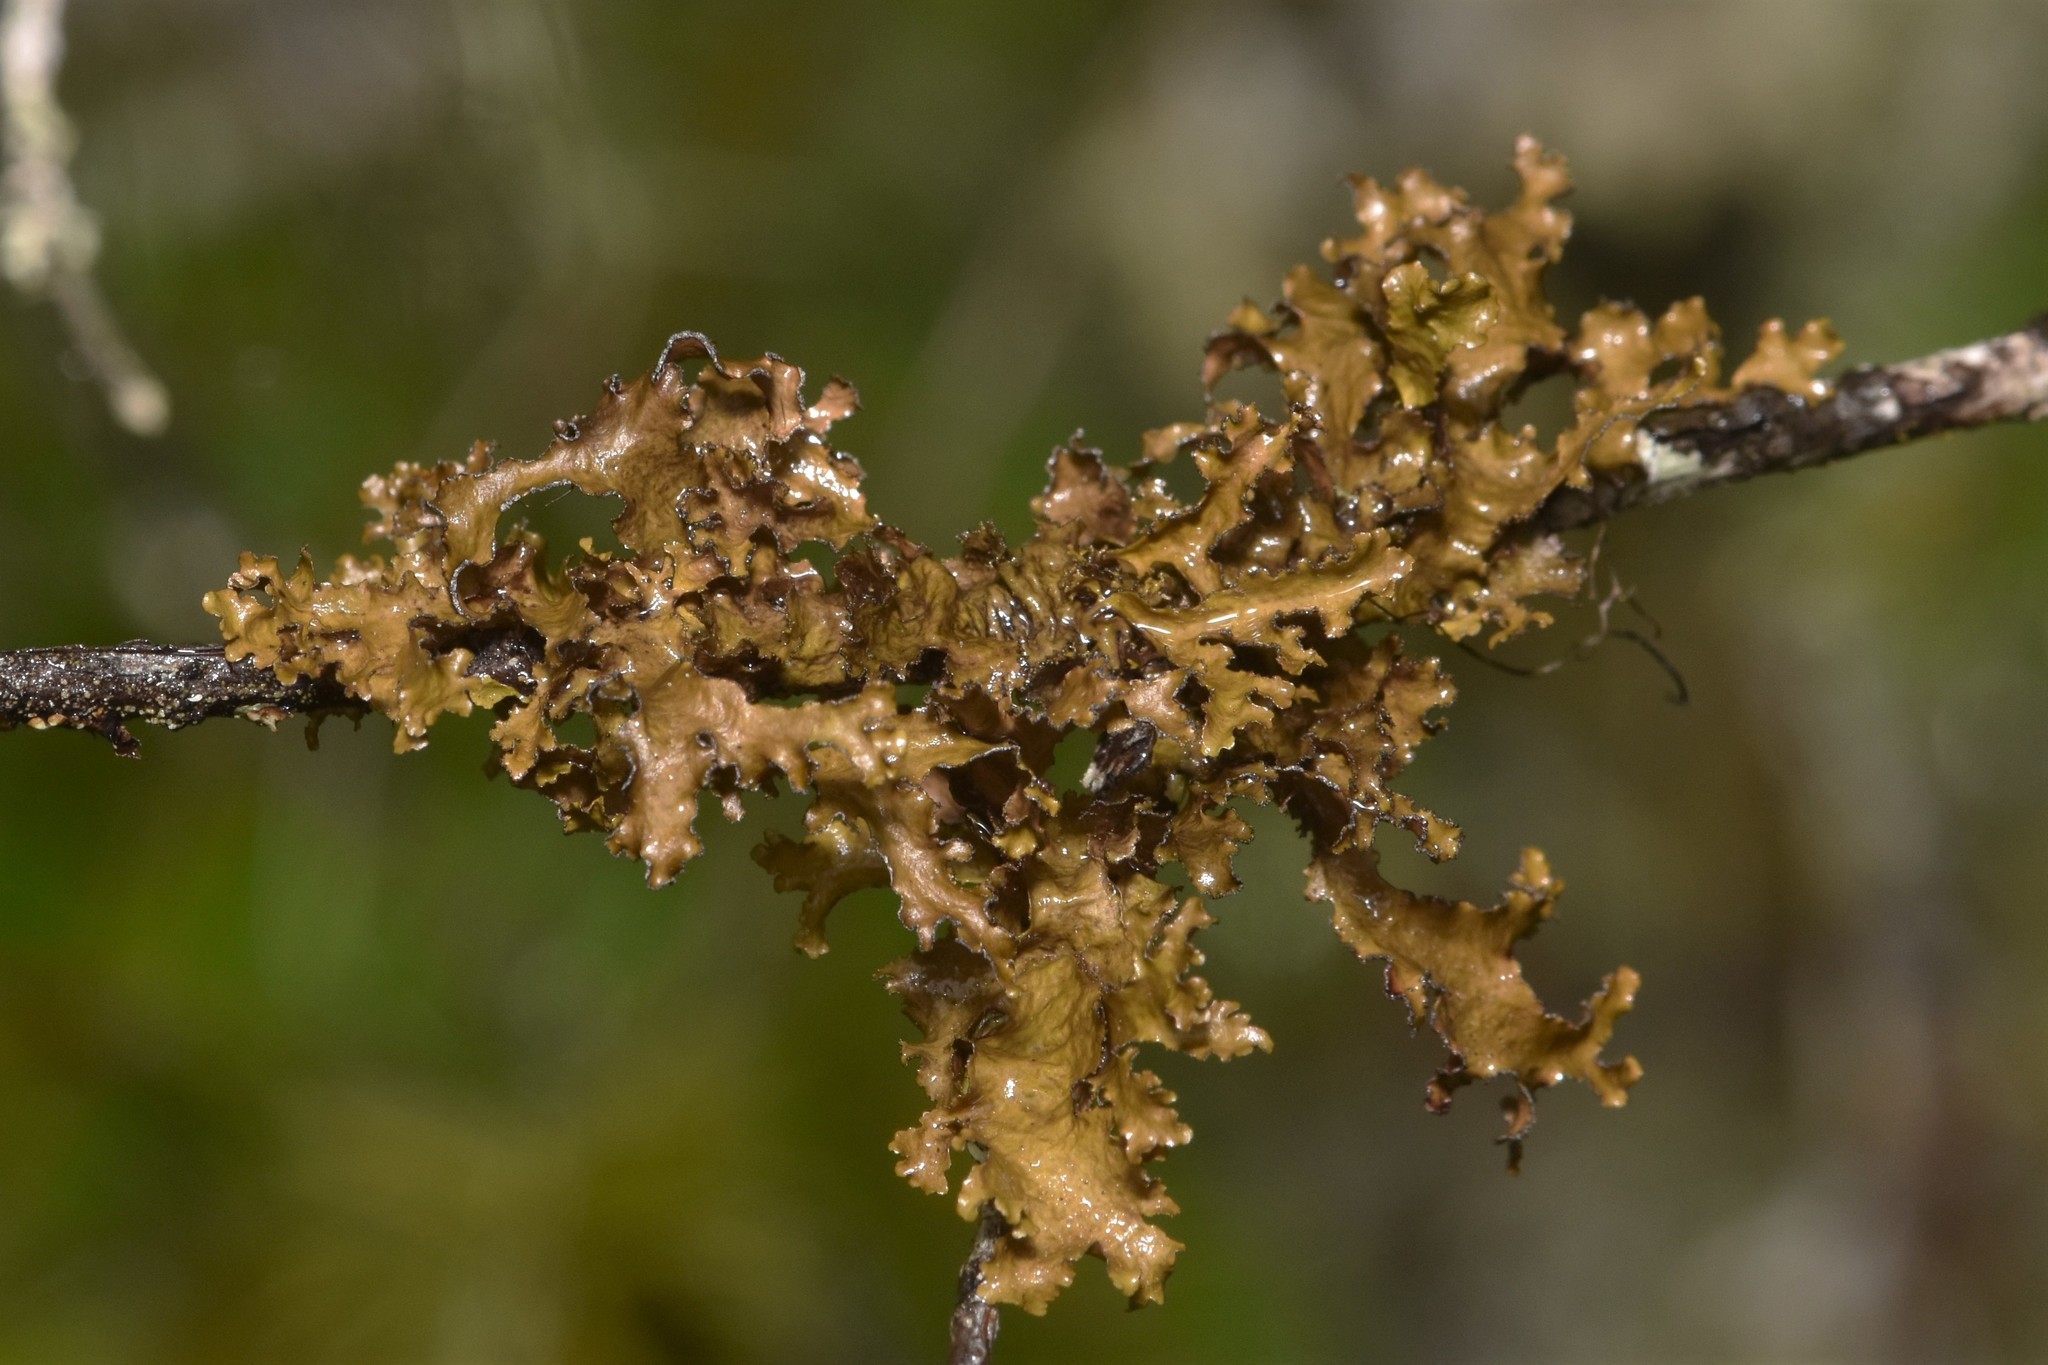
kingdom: Fungi
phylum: Ascomycota
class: Lecanoromycetes
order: Lecanorales
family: Parmeliaceae
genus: Nephromopsis
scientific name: Nephromopsis chlorophylla
